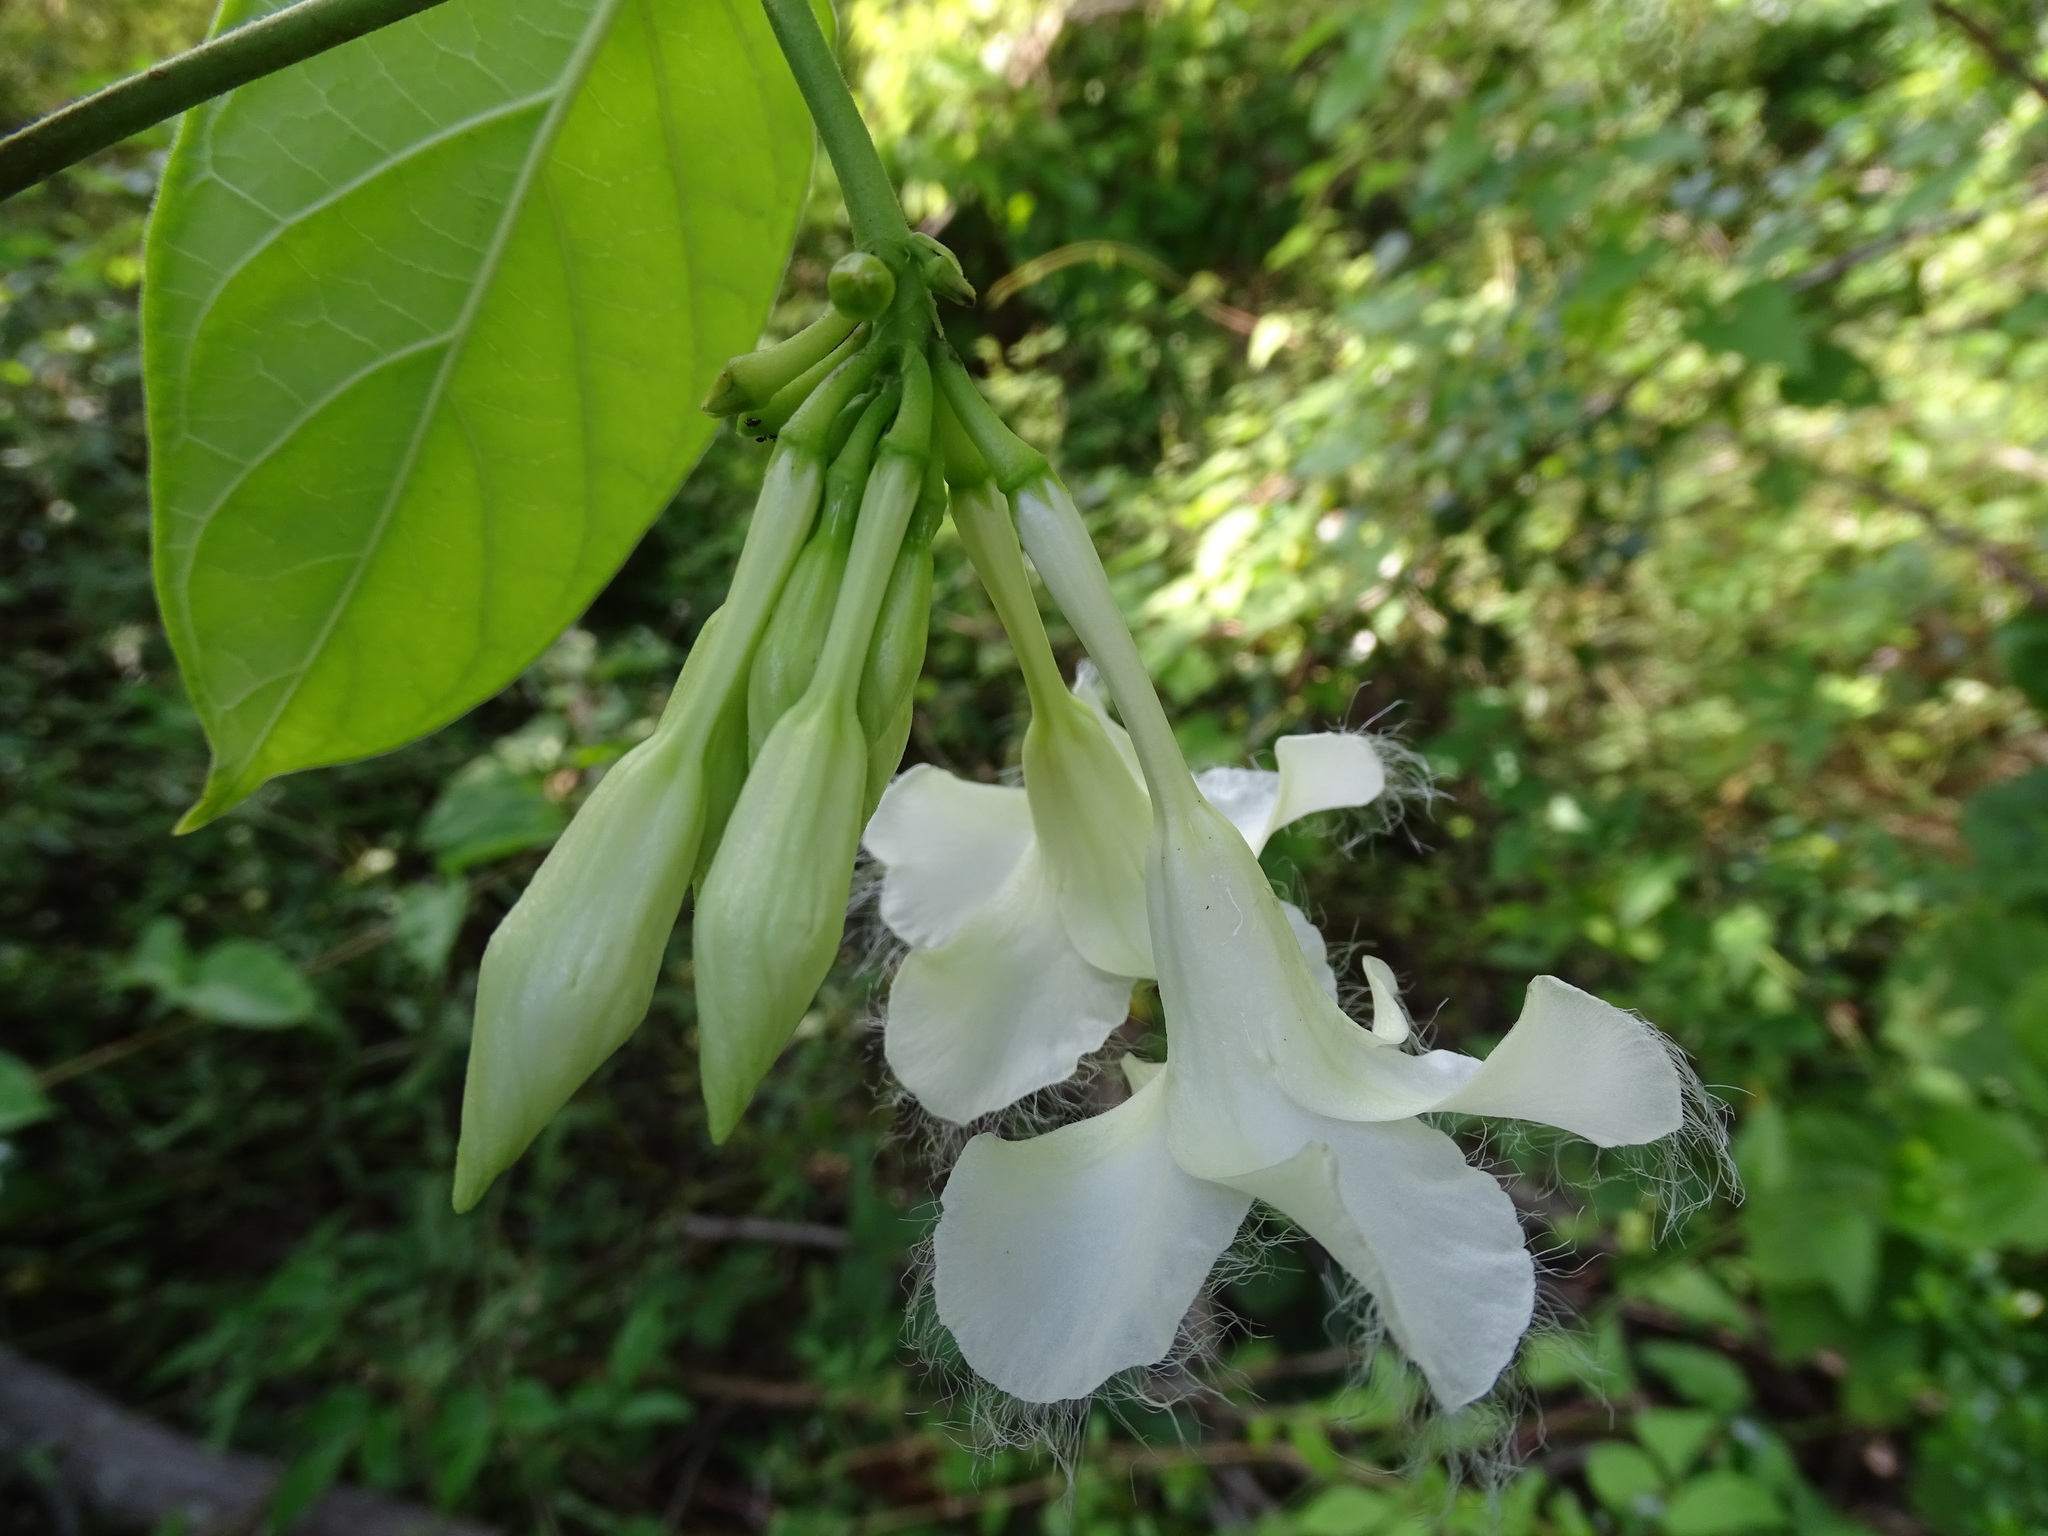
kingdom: Plantae
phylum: Tracheophyta
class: Magnoliopsida
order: Gentianales
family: Apocynaceae
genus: Echites
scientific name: Echites panduratus
